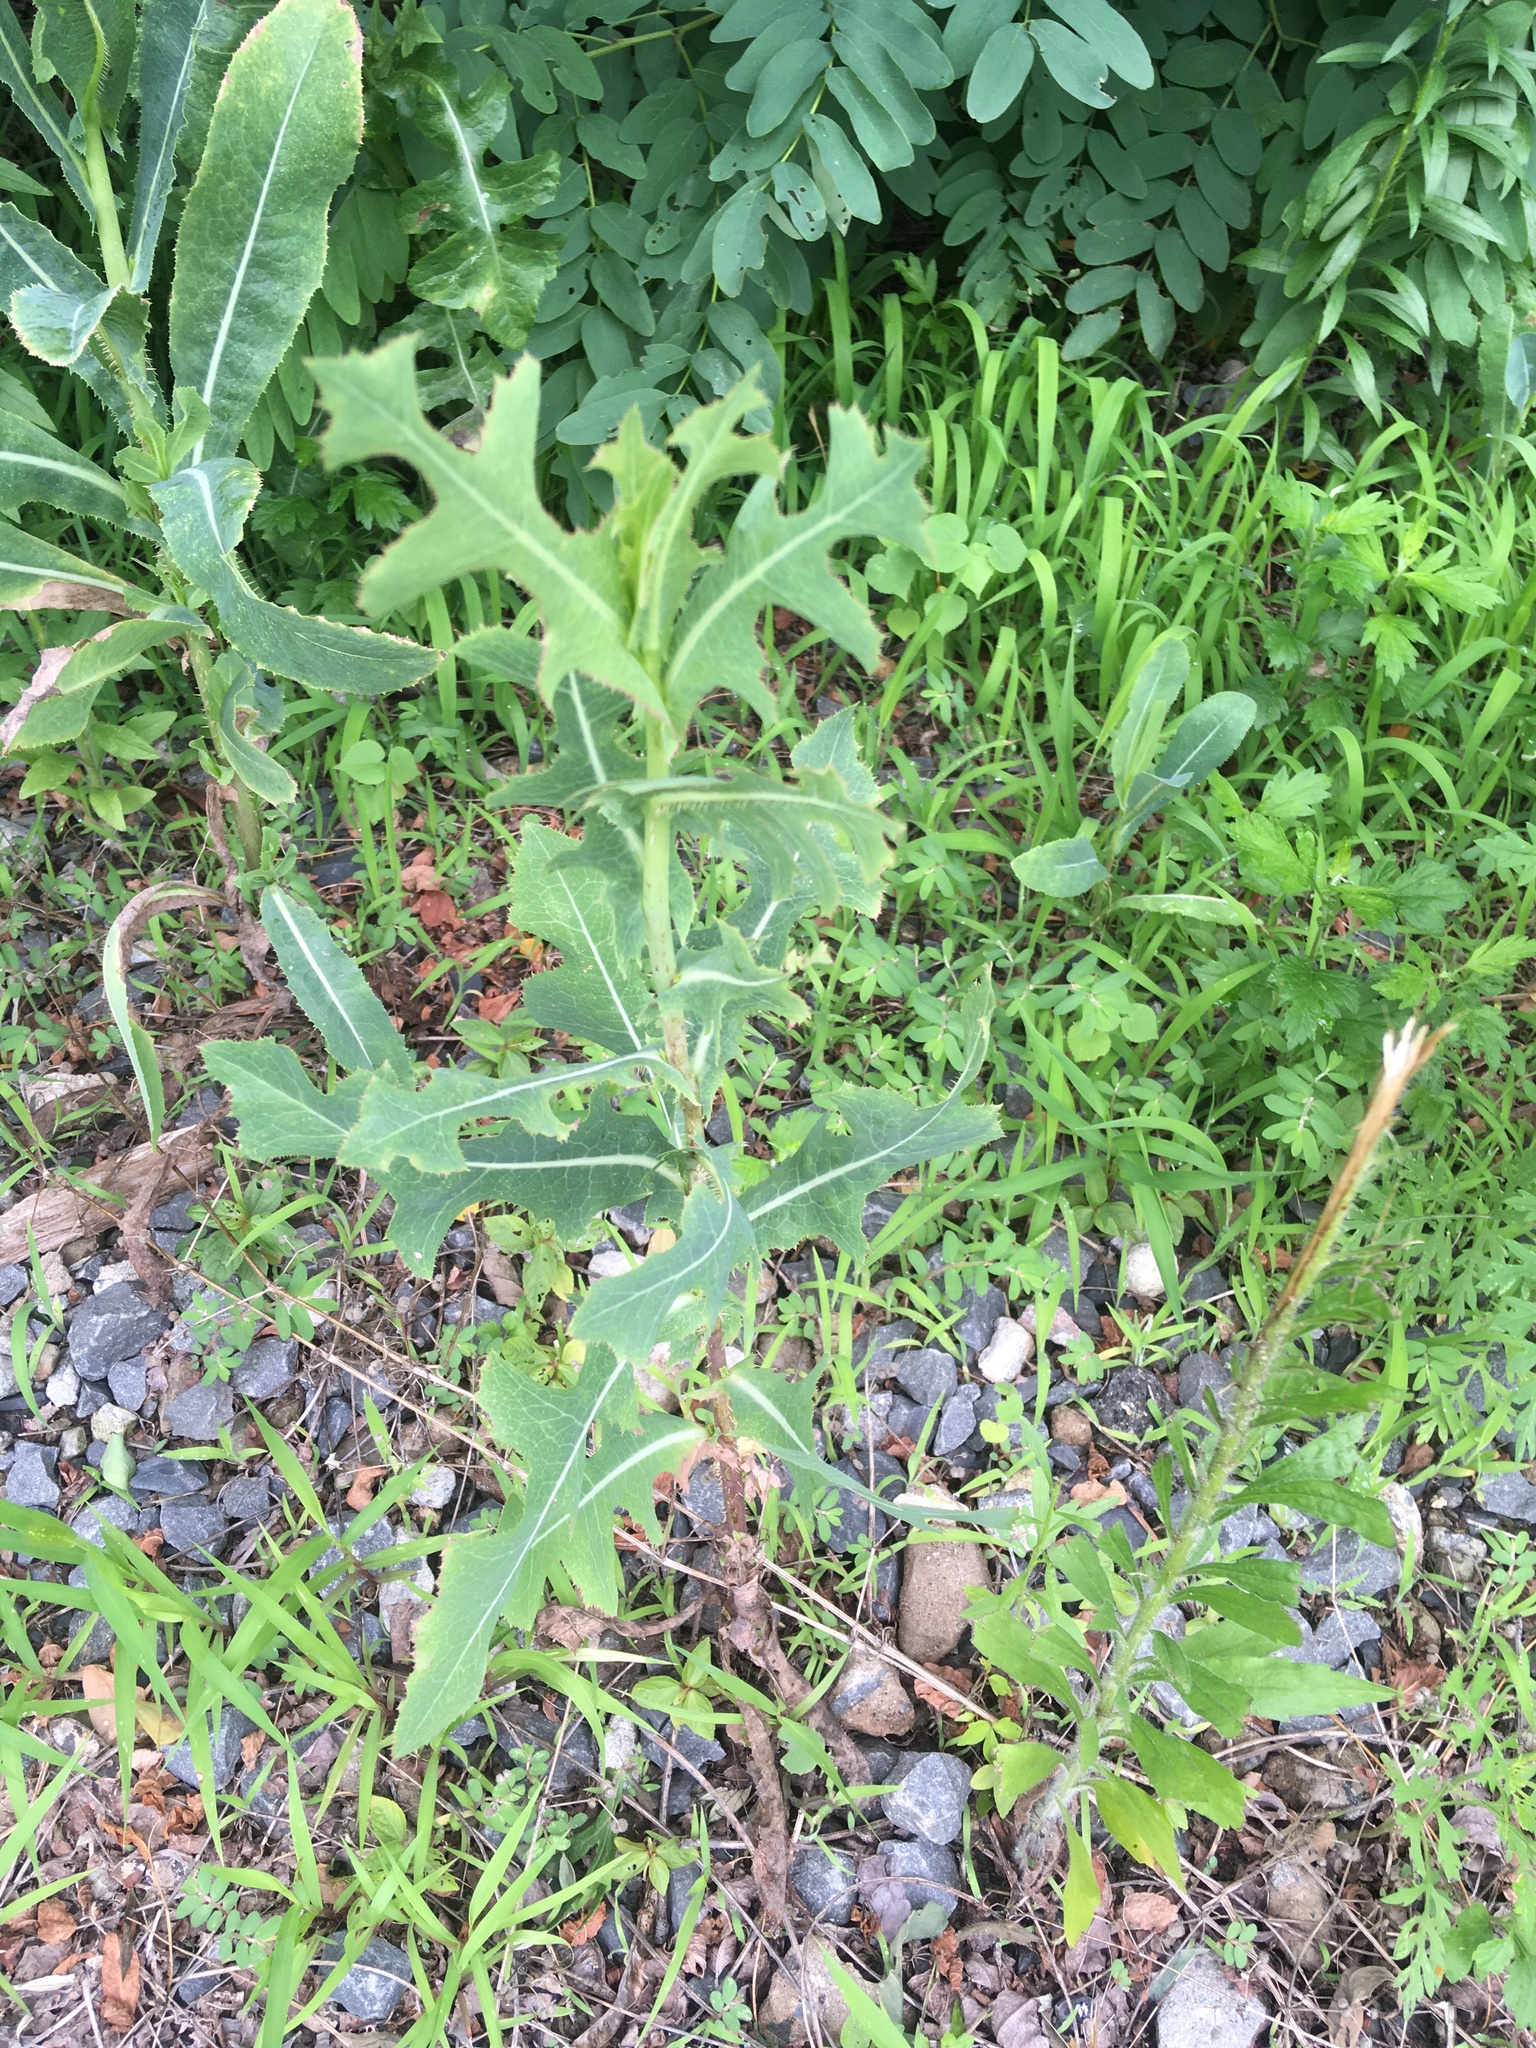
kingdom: Plantae
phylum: Tracheophyta
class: Magnoliopsida
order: Asterales
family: Asteraceae
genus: Lactuca
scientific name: Lactuca serriola
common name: Prickly lettuce
